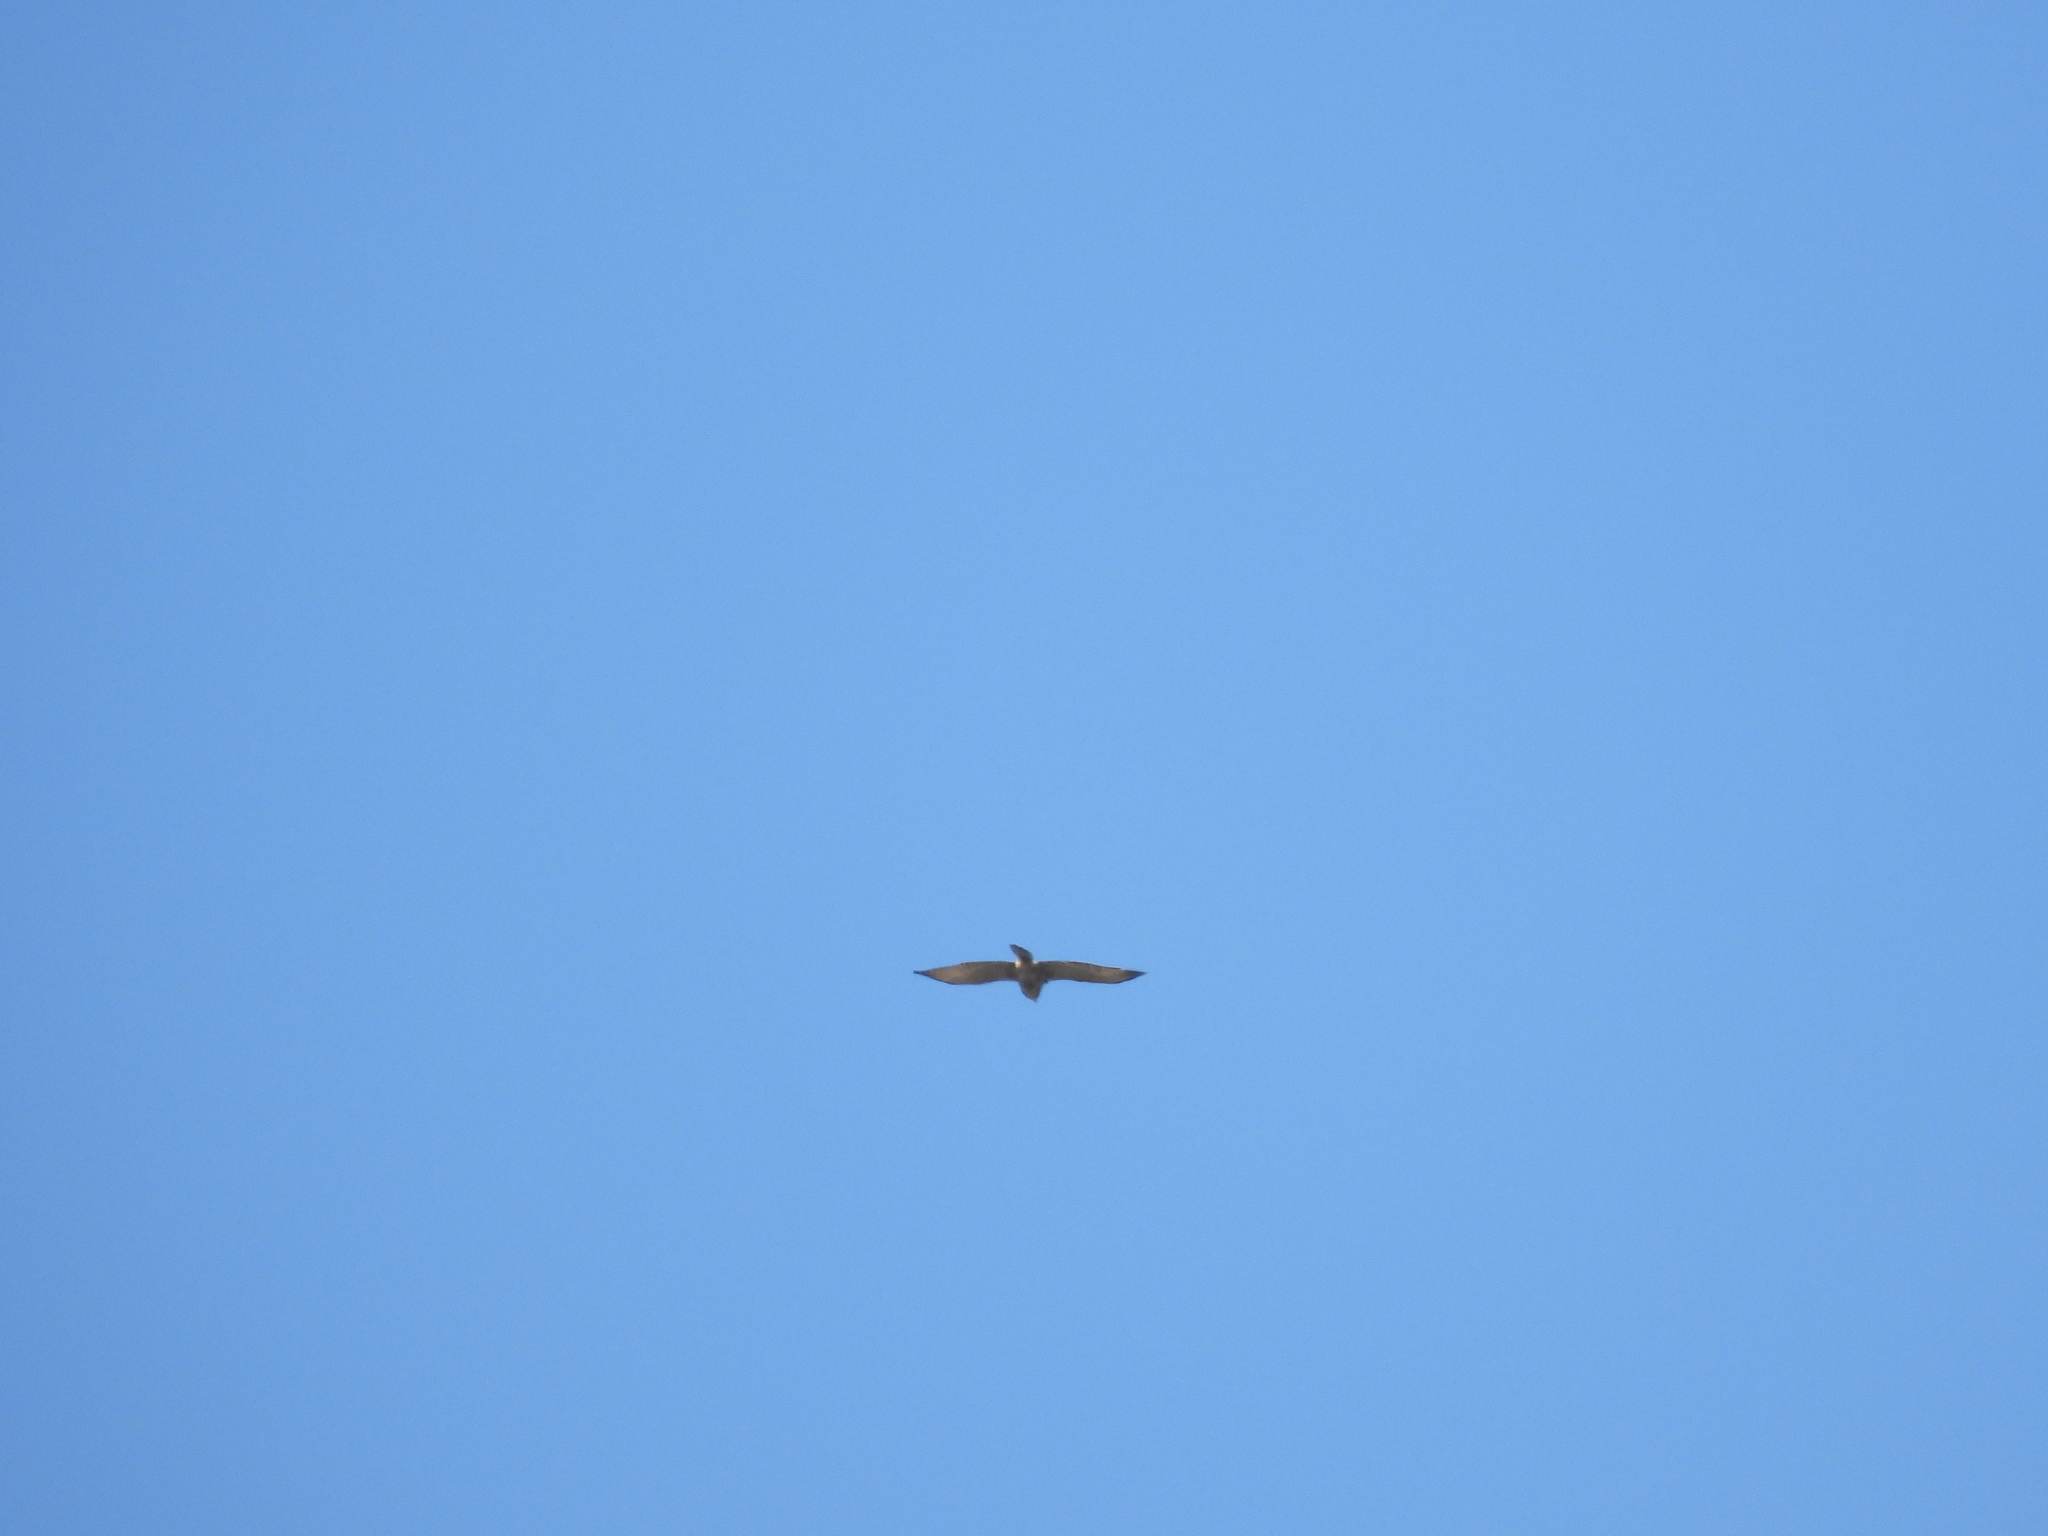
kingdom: Animalia
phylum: Chordata
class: Aves
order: Accipitriformes
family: Accipitridae
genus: Buteo
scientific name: Buteo platypterus
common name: Broad-winged hawk
